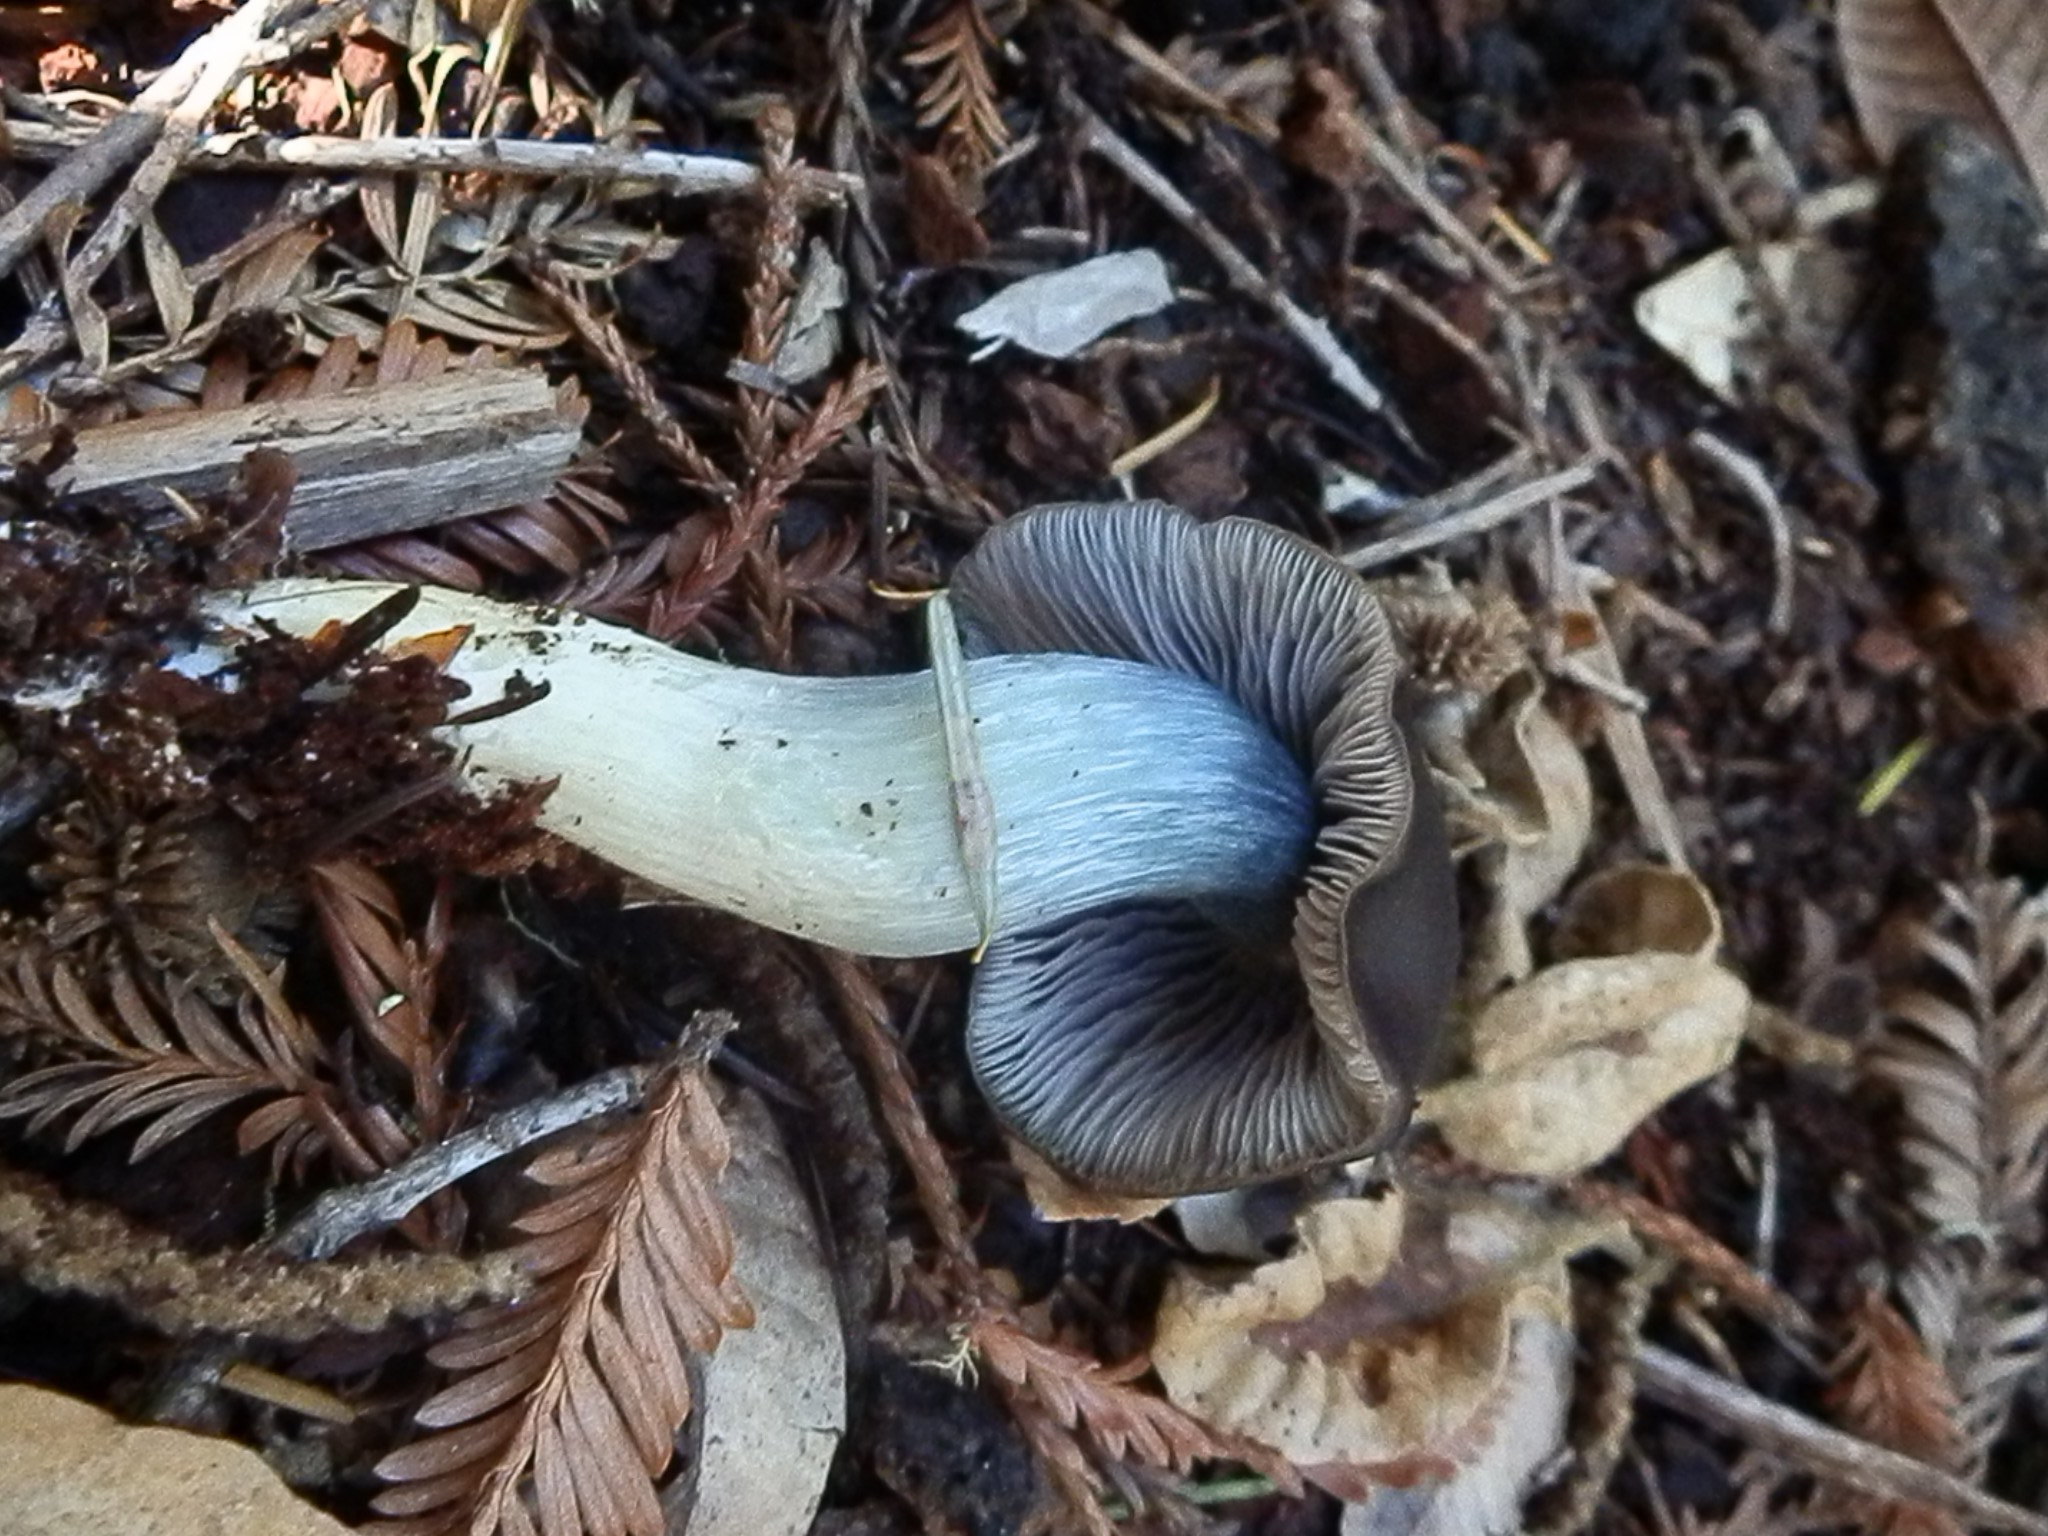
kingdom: Fungi
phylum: Basidiomycota
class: Agaricomycetes
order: Agaricales
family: Entolomataceae
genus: Entoloma
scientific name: Entoloma medianox
